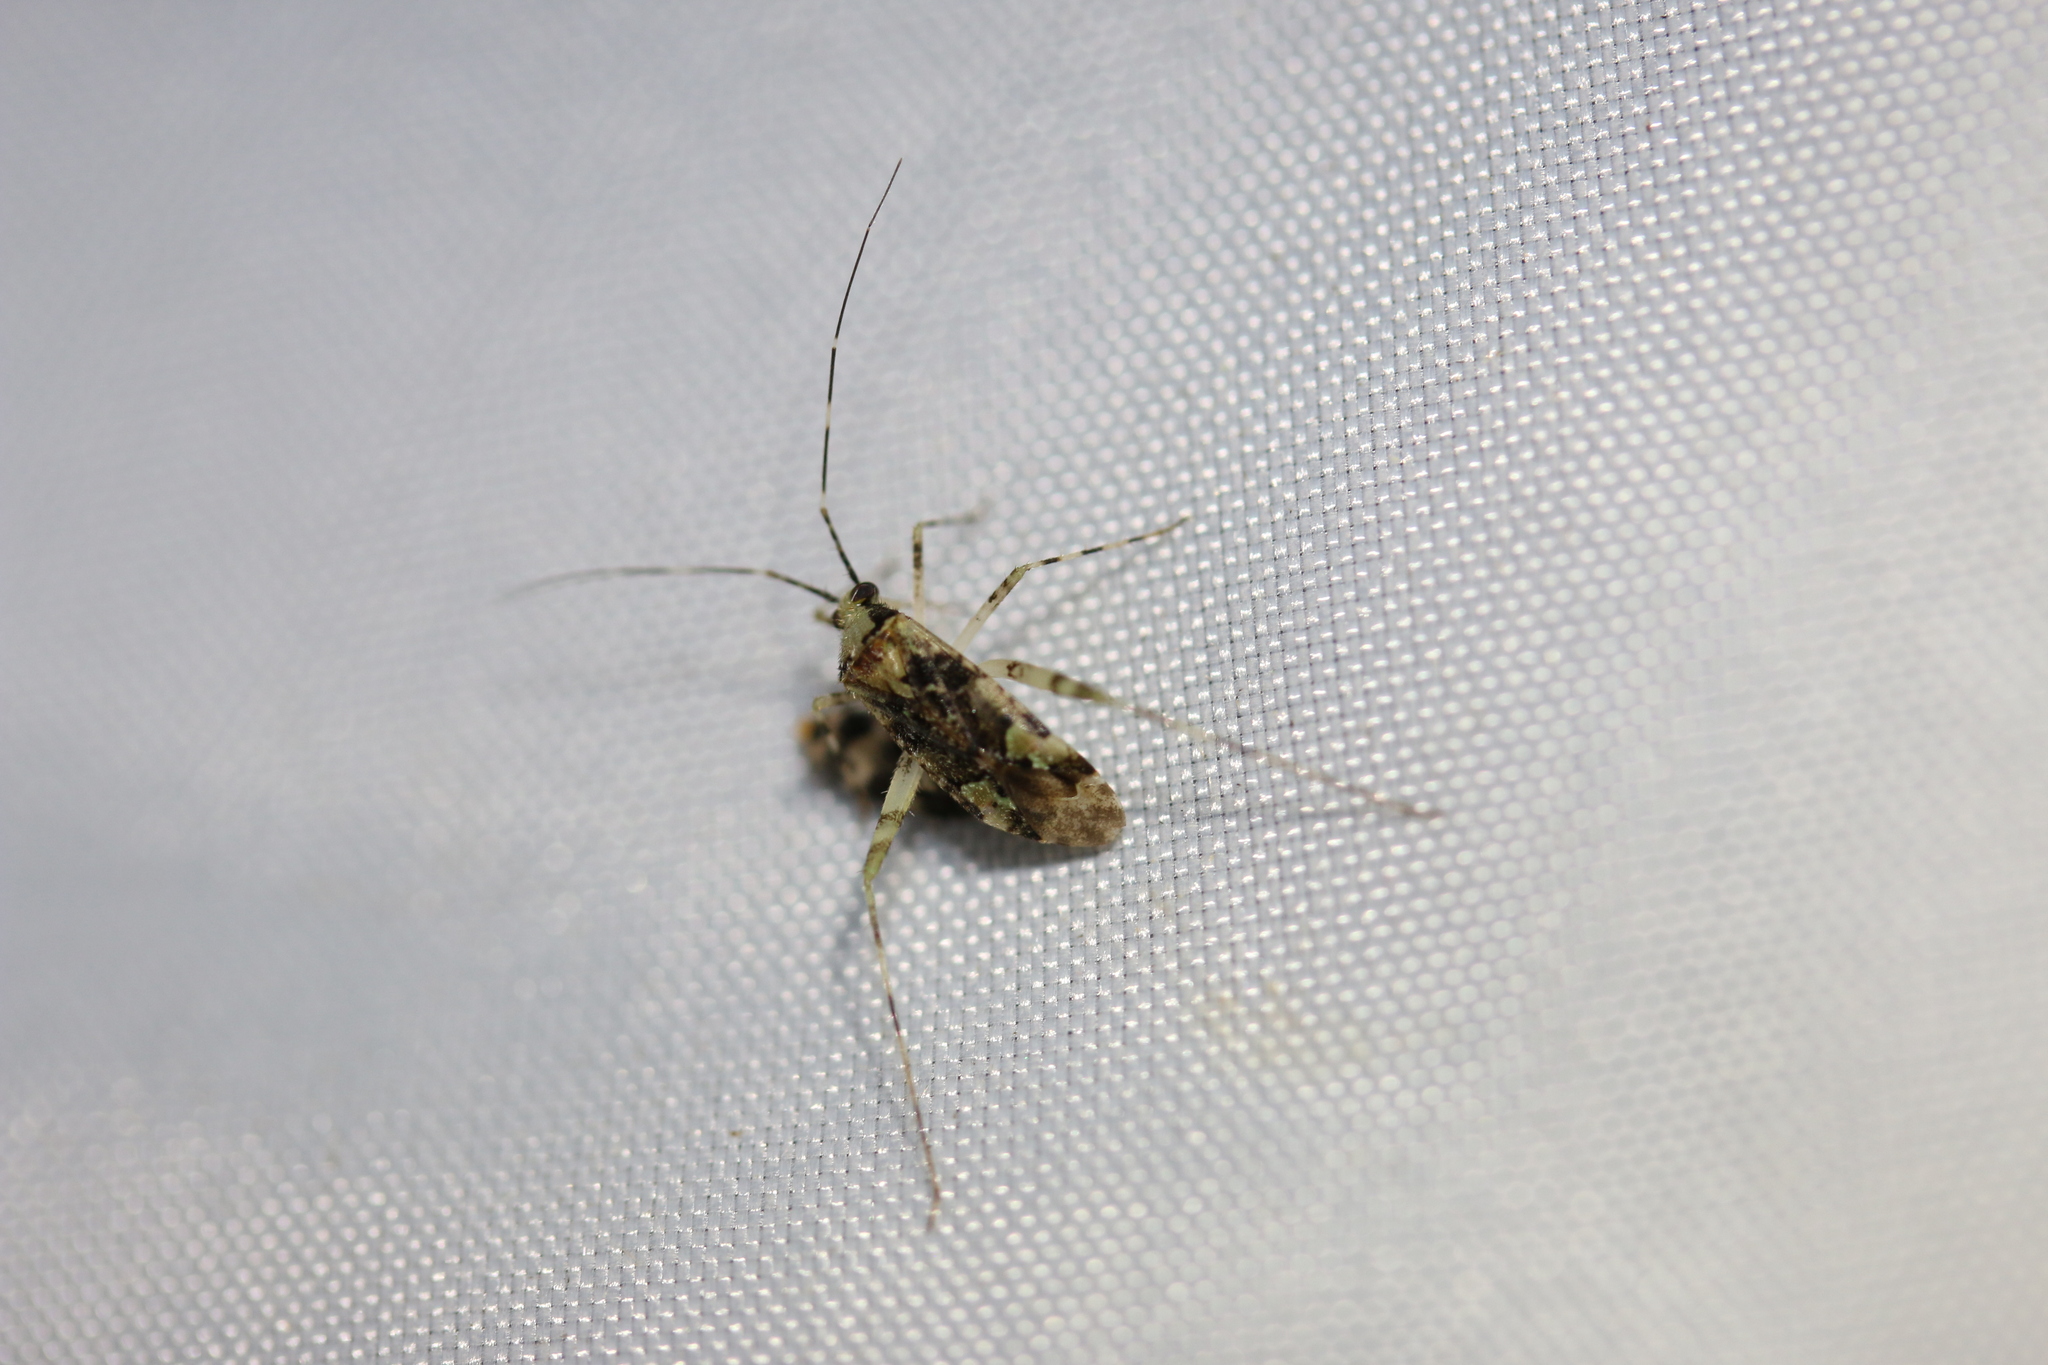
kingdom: Animalia
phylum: Arthropoda
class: Insecta
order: Hemiptera
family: Miridae
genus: Phytocoris
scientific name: Phytocoris tiliae
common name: Plant bug
